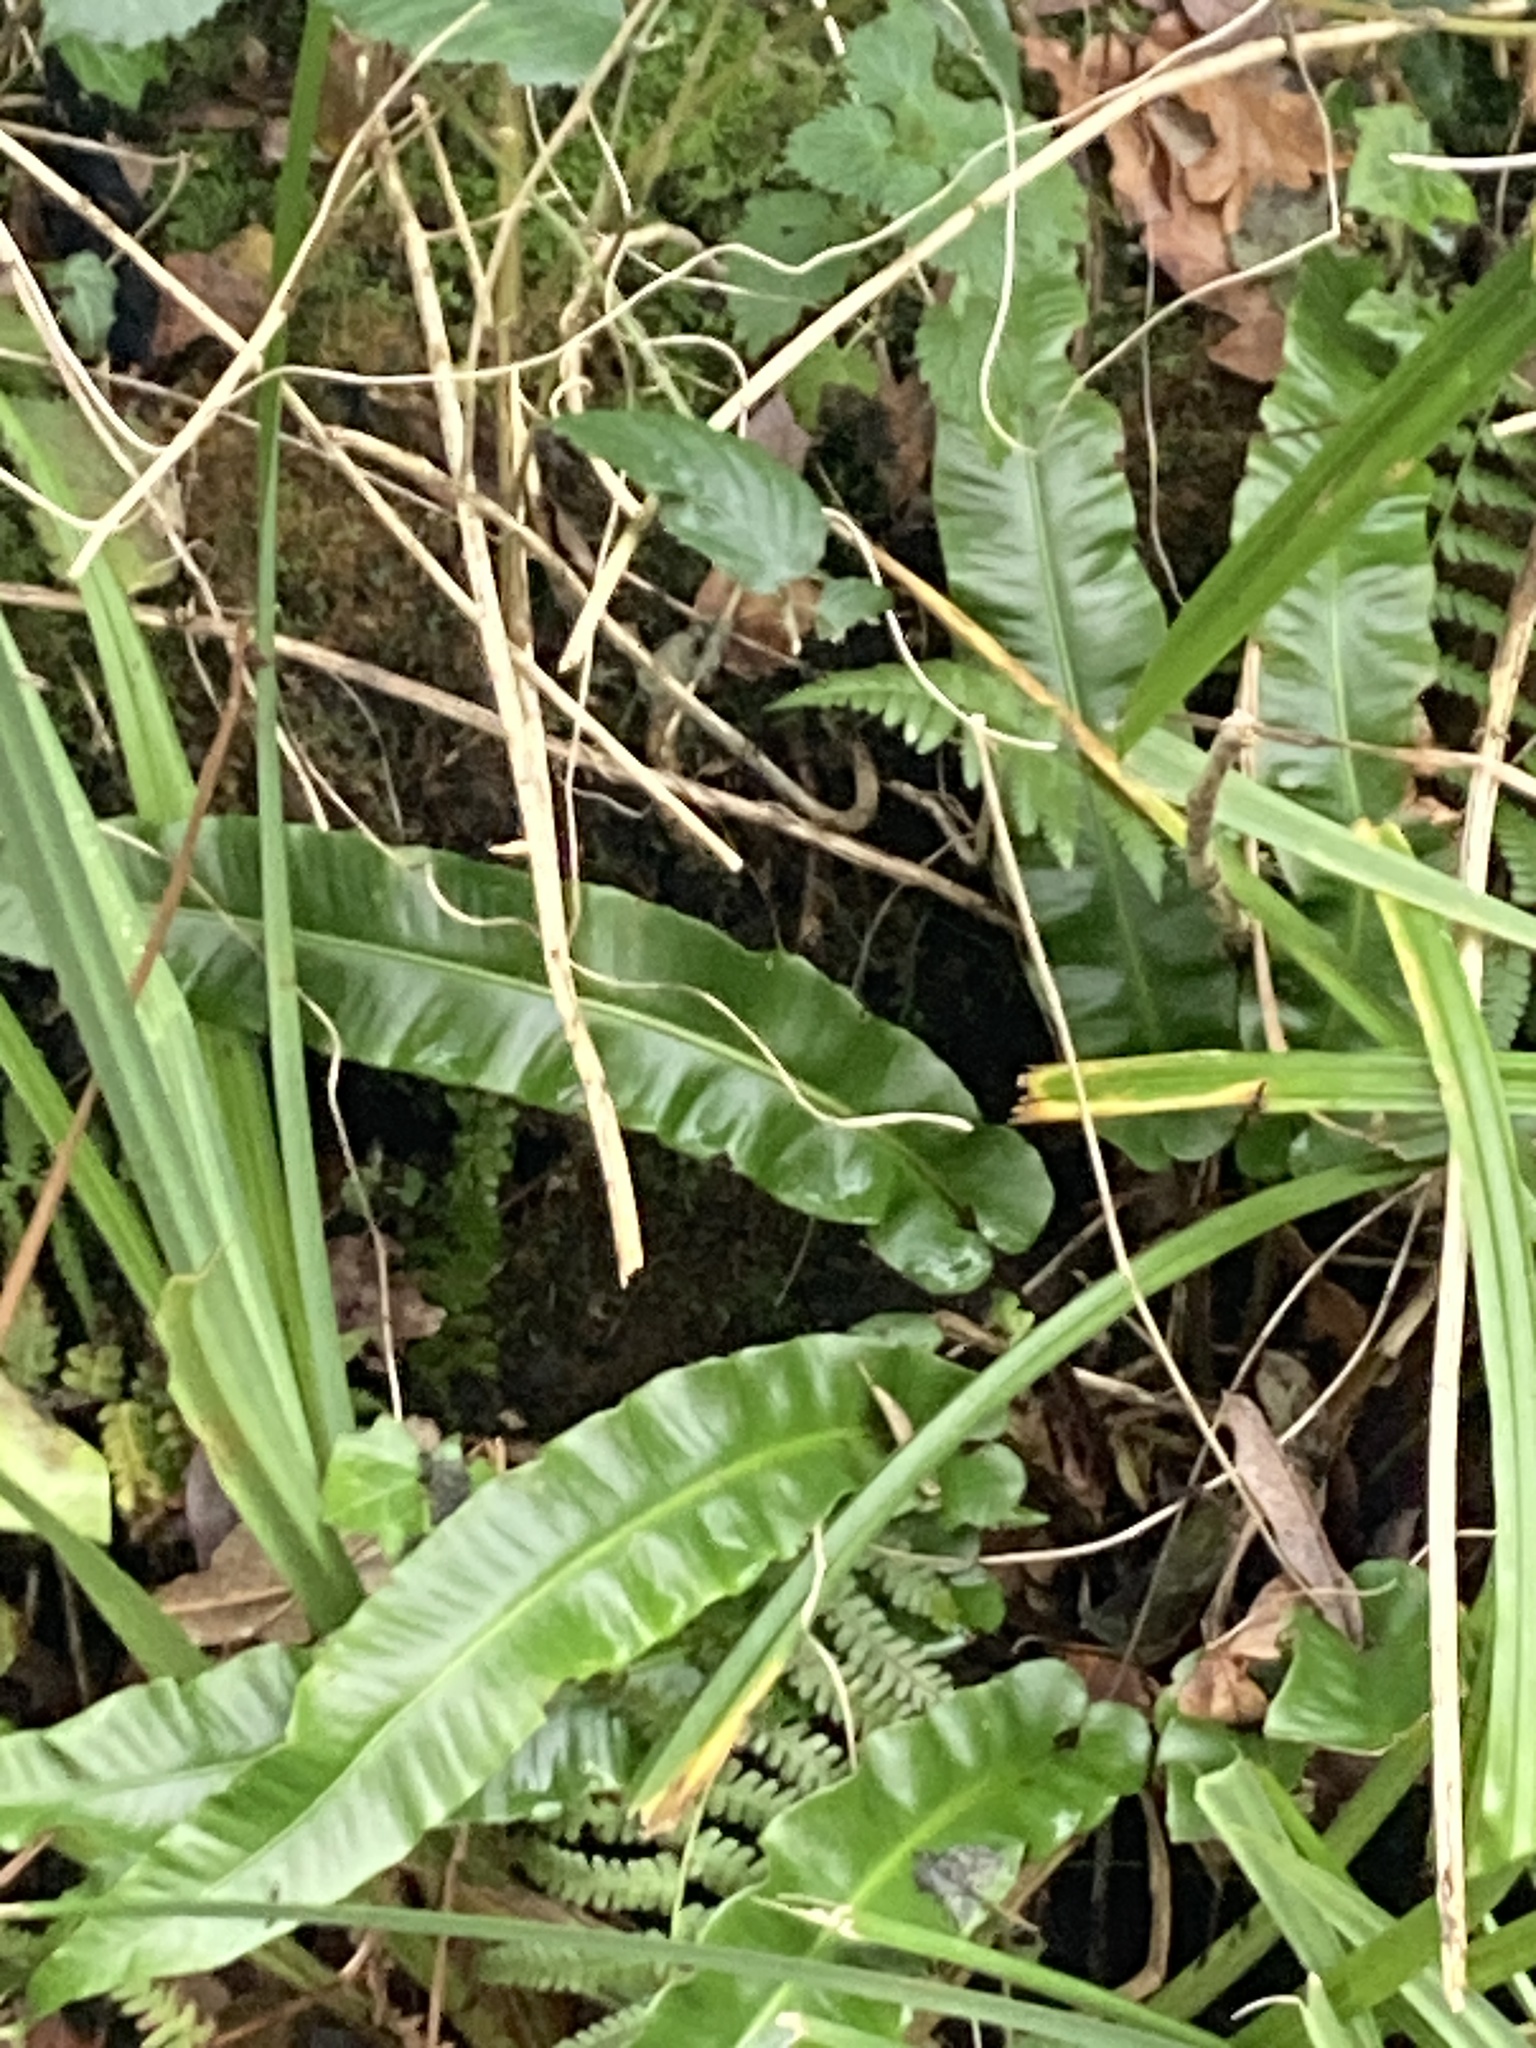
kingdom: Plantae
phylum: Tracheophyta
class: Polypodiopsida
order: Polypodiales
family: Aspleniaceae
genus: Asplenium
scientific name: Asplenium scolopendrium
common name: Hart's-tongue fern
